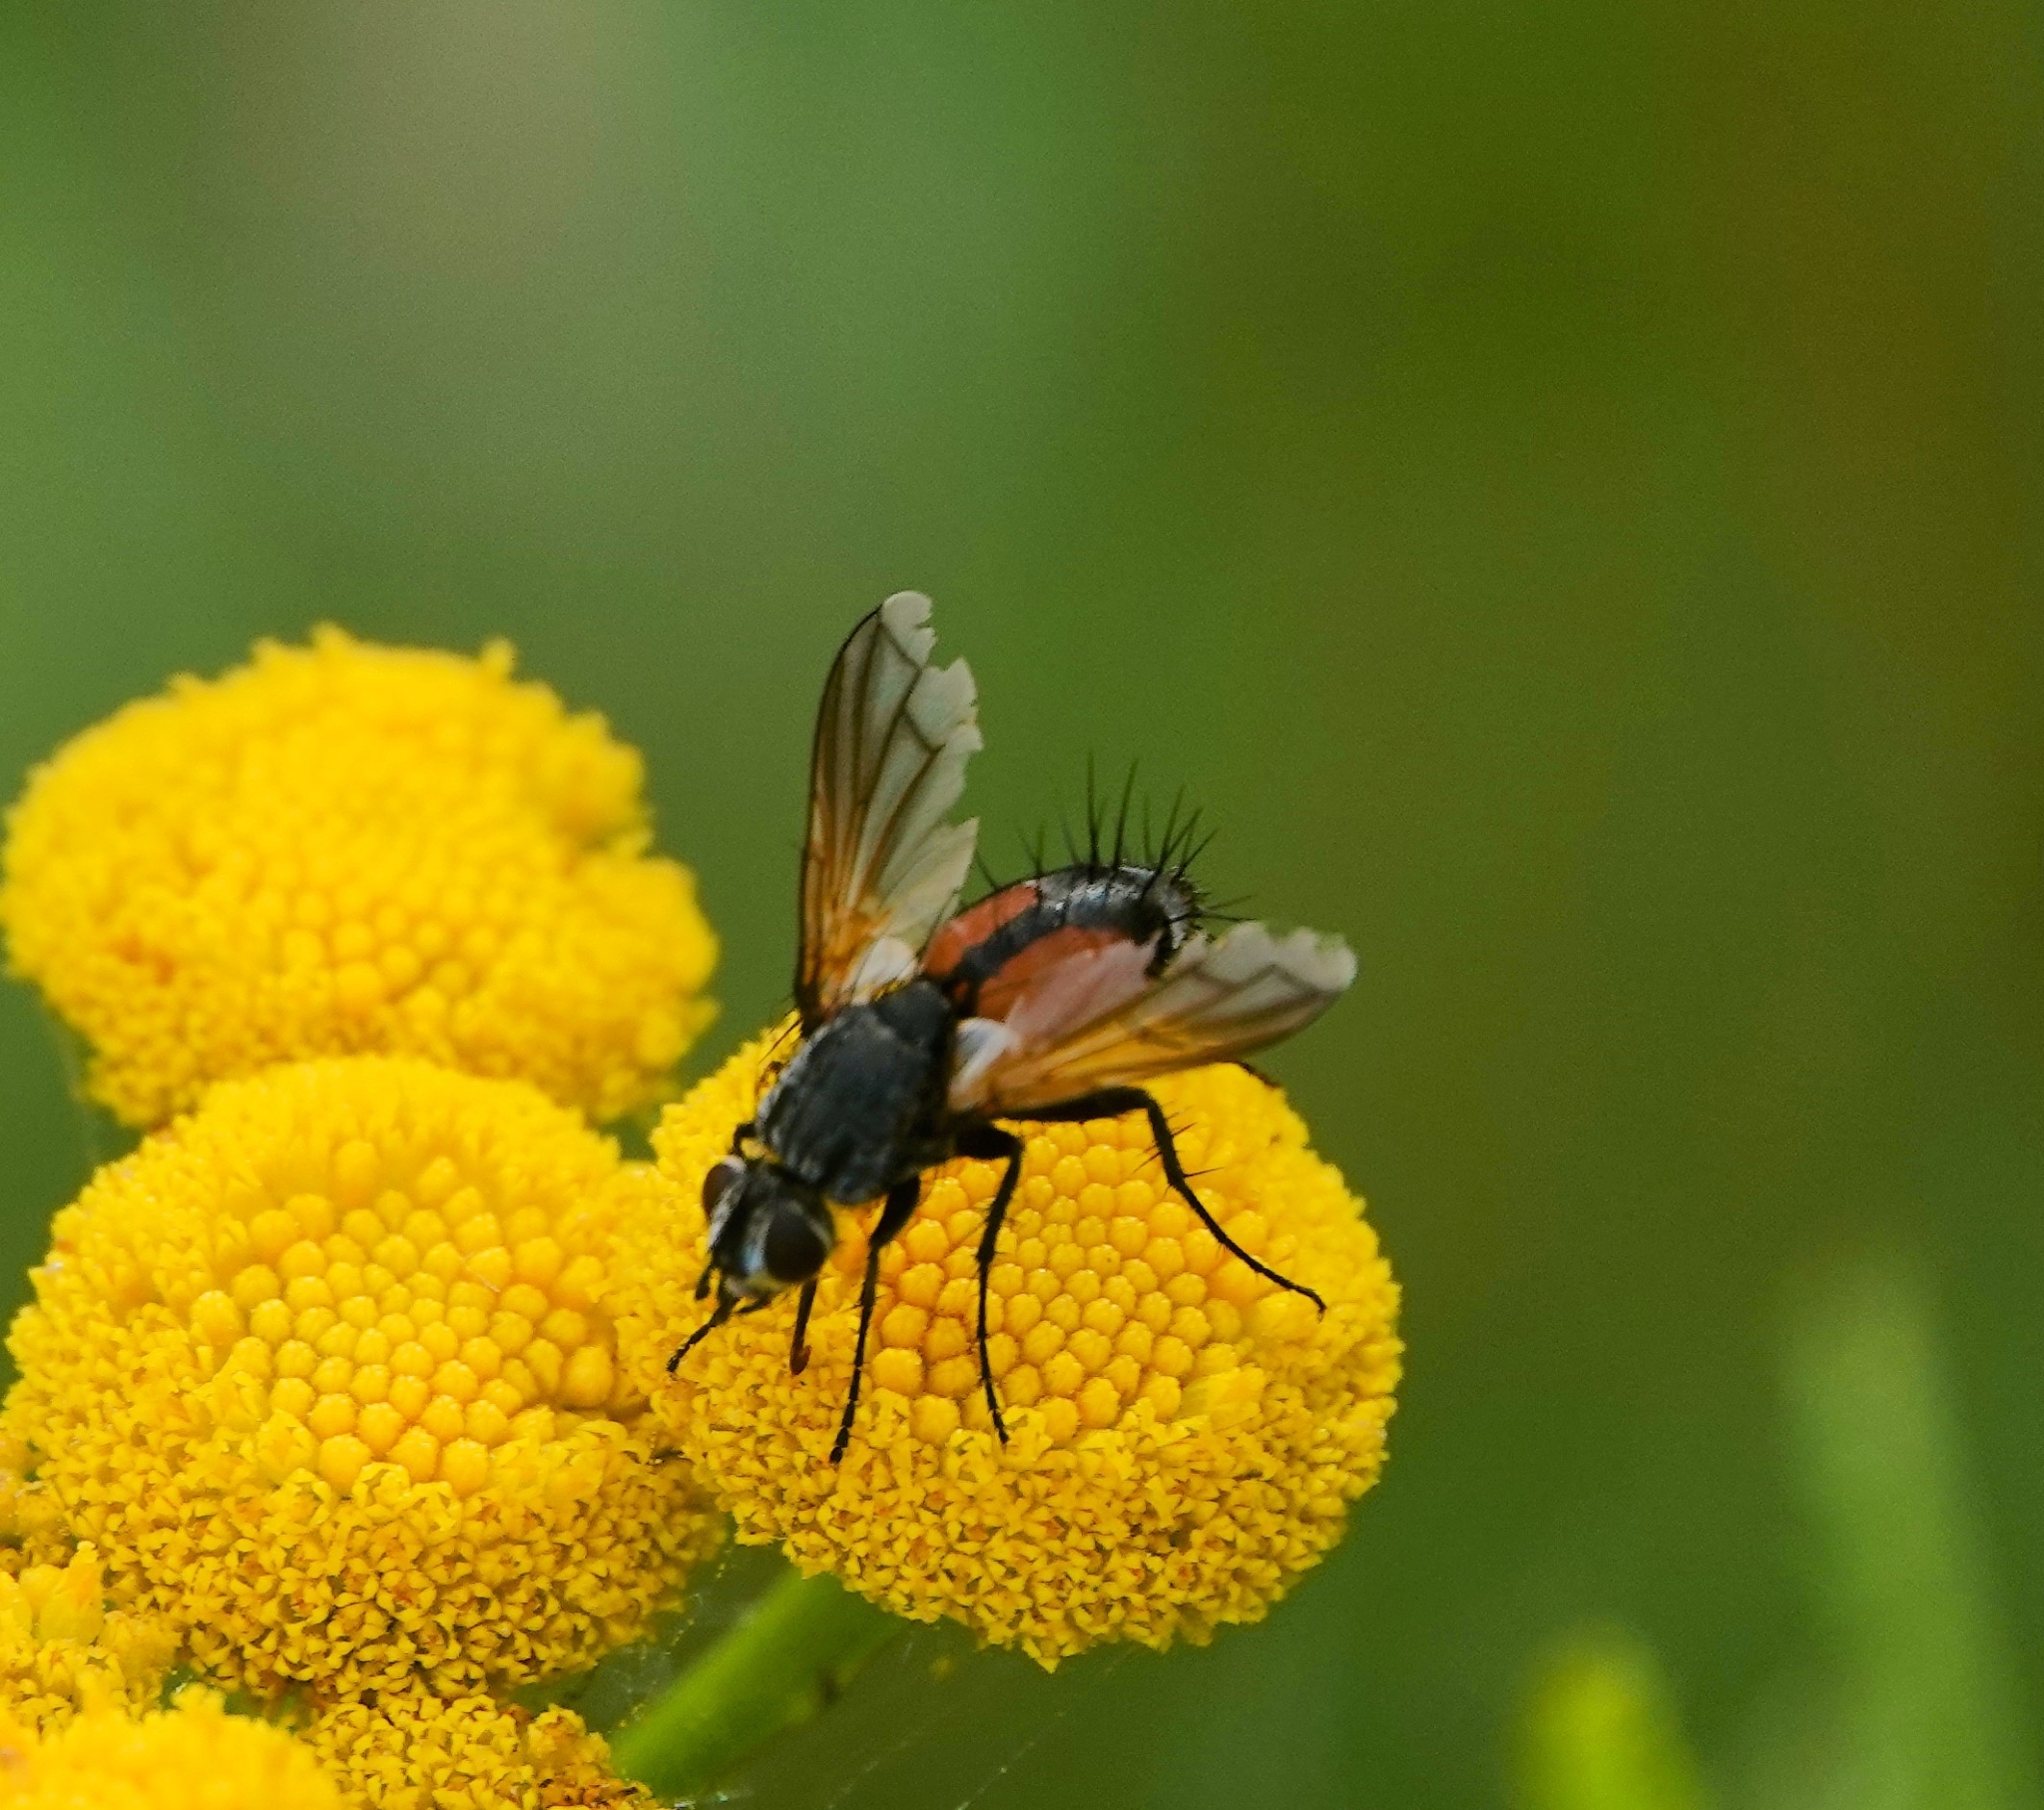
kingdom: Animalia
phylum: Arthropoda
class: Insecta
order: Diptera
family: Tachinidae
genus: Eriothrix
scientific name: Eriothrix rufomaculatus
